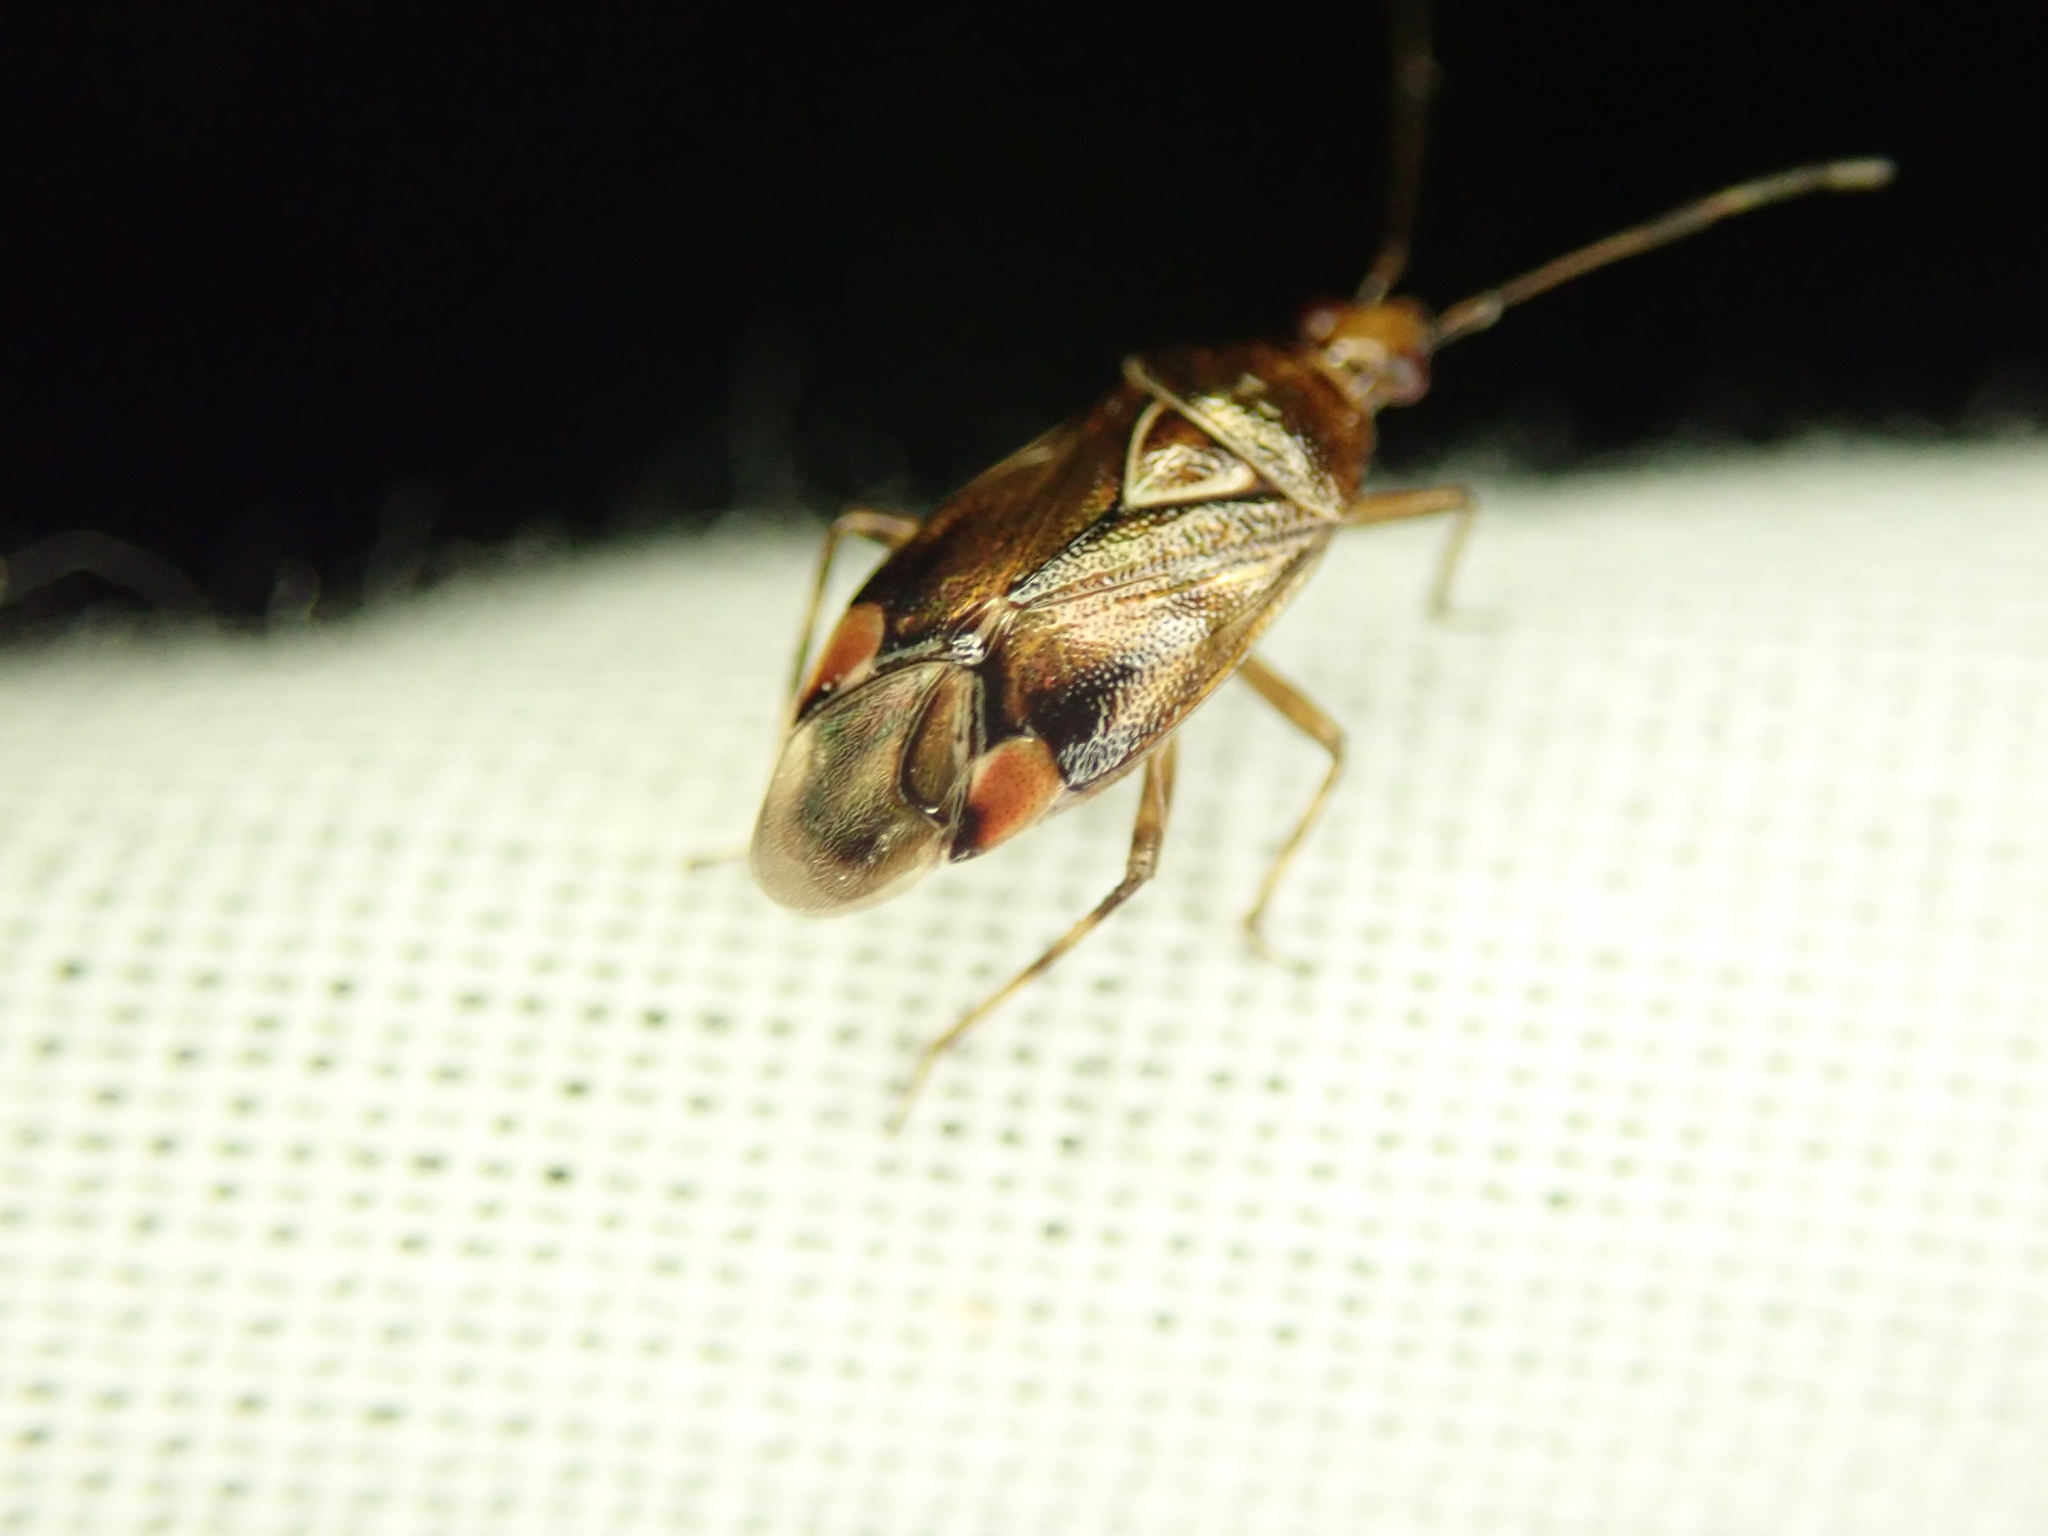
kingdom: Animalia
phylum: Arthropoda
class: Insecta
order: Hemiptera
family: Miridae
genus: Deraeocoris
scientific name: Deraeocoris flavilinea
